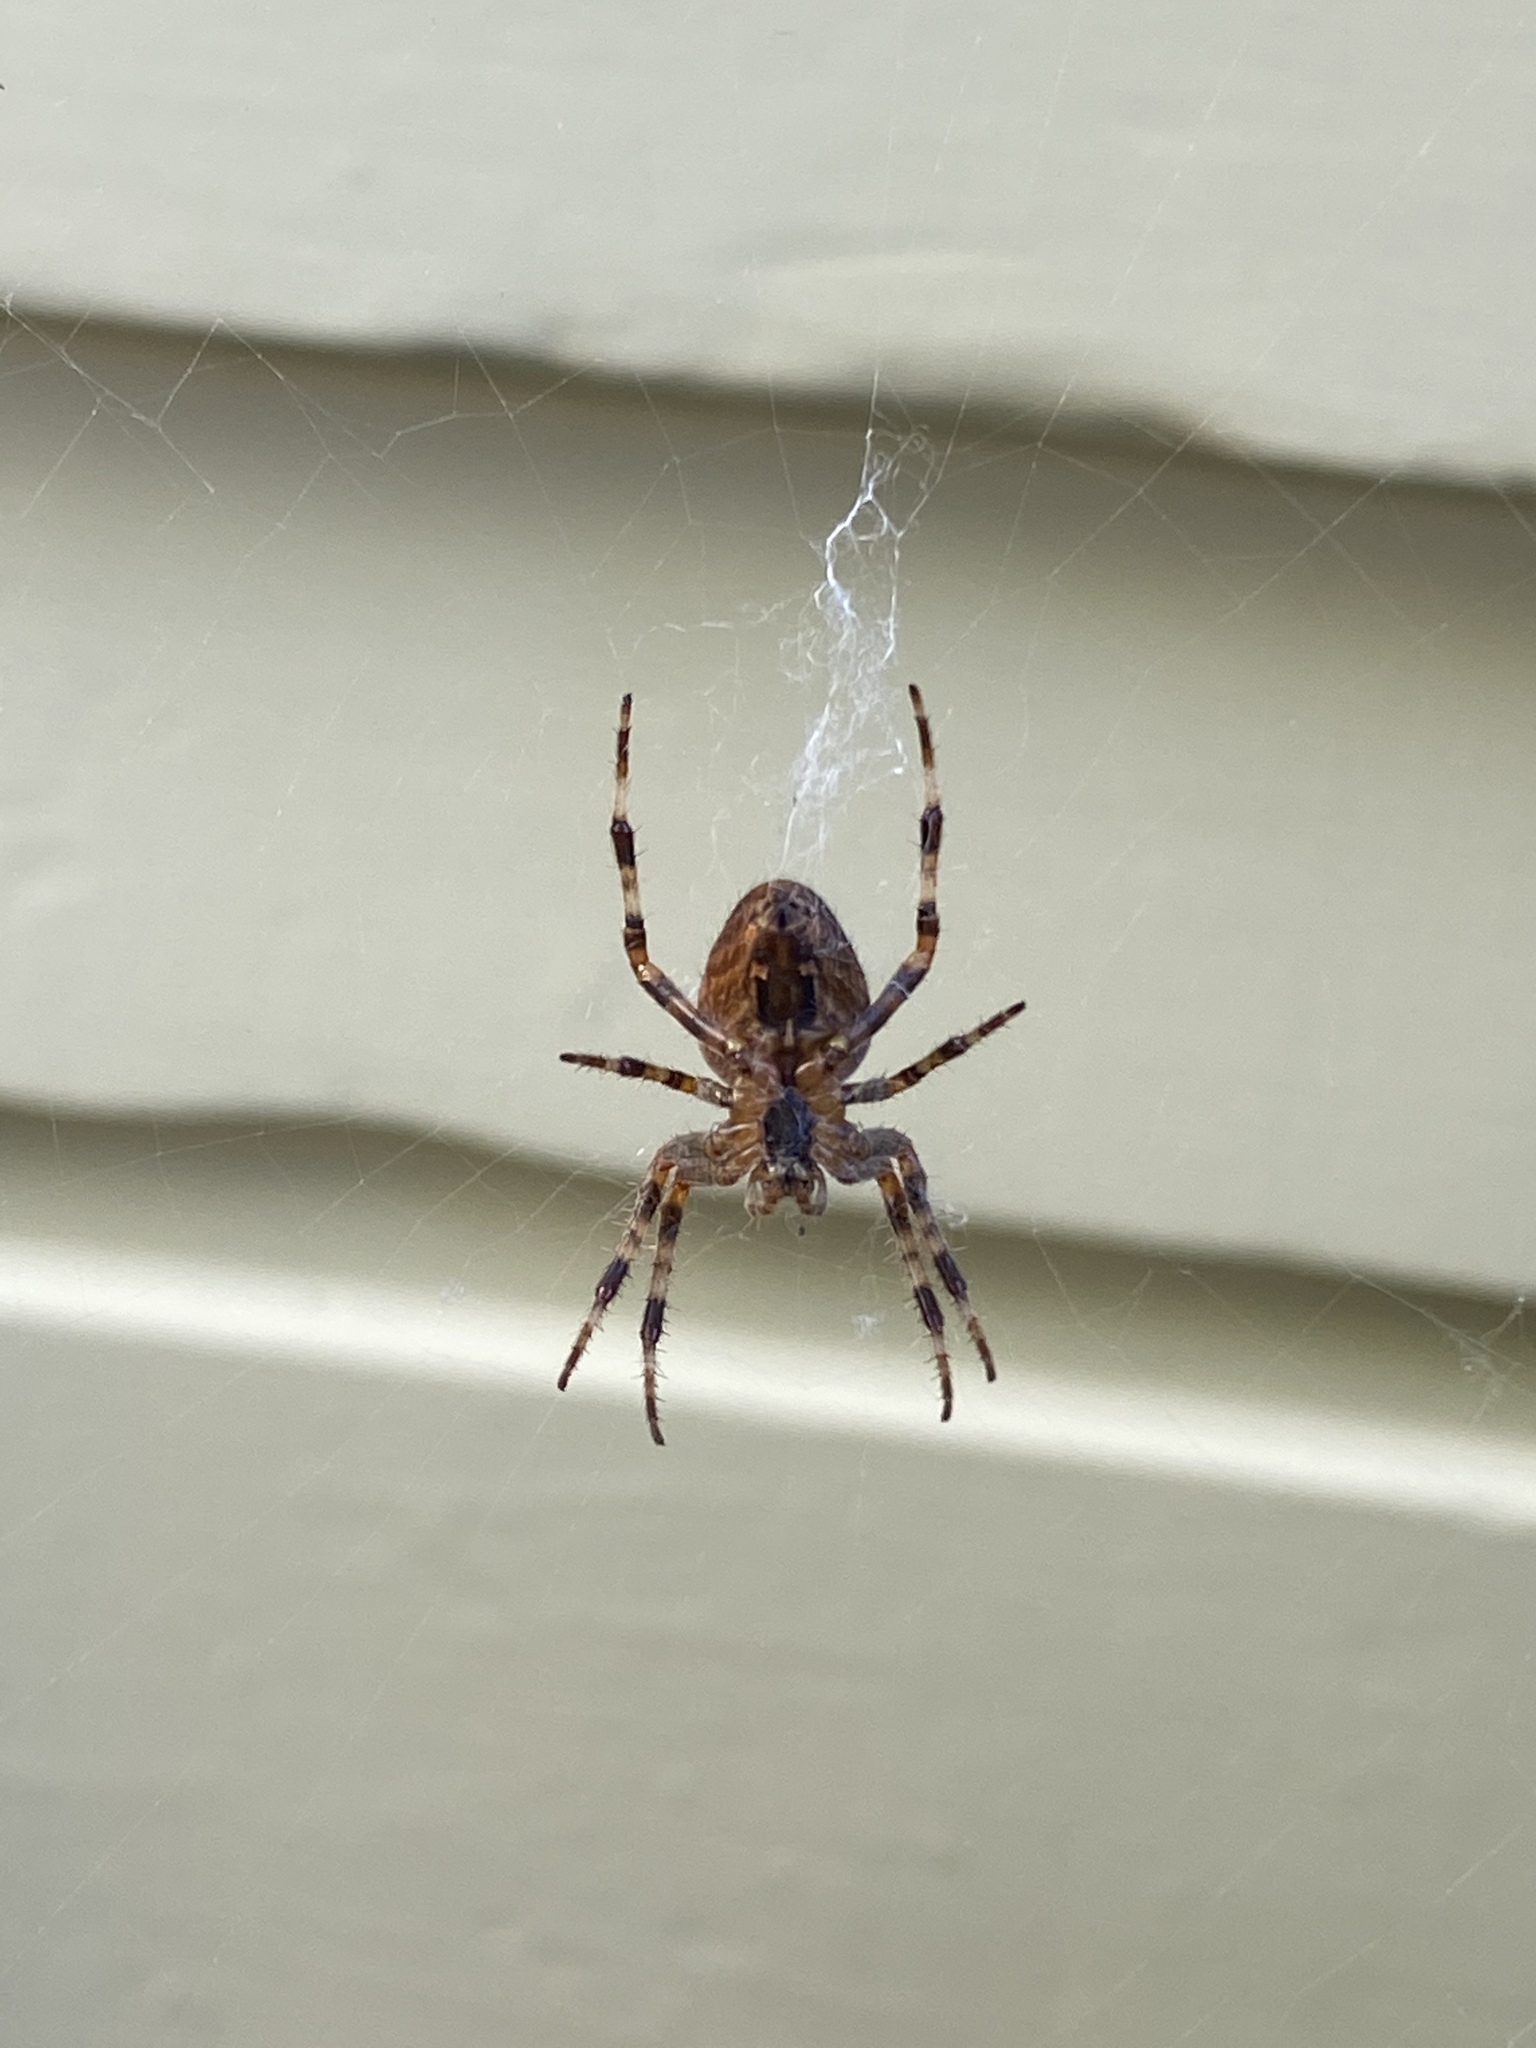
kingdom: Animalia
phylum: Arthropoda
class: Arachnida
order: Araneae
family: Araneidae
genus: Araneus
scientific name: Araneus diadematus
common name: Cross orbweaver
